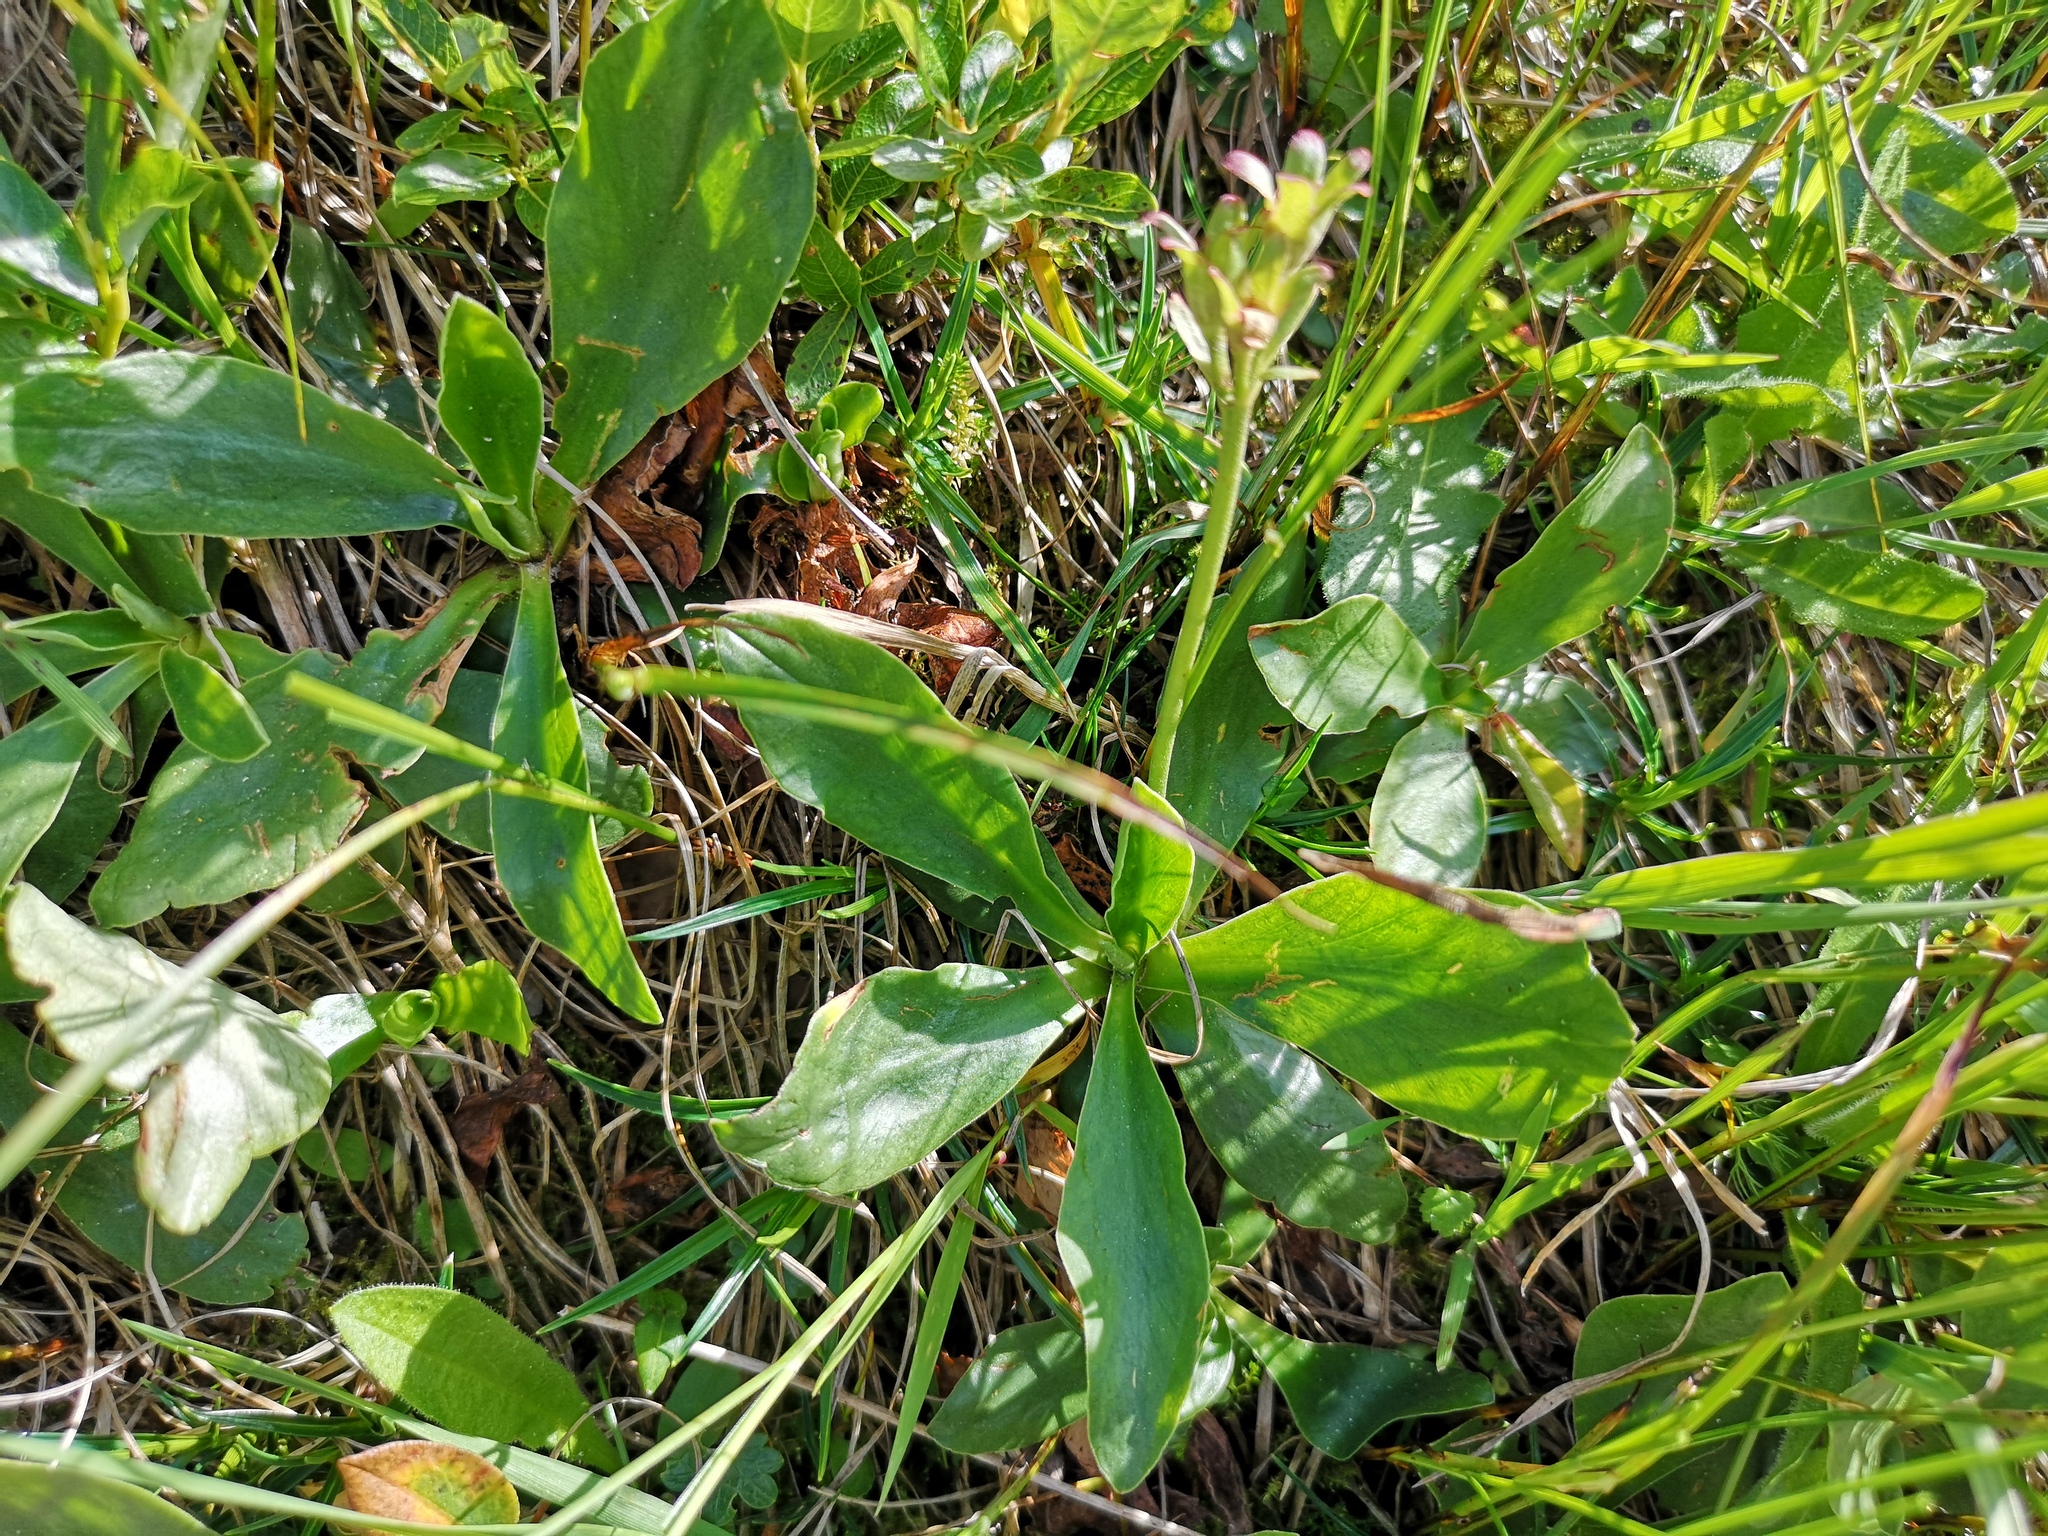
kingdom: Plantae
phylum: Tracheophyta
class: Magnoliopsida
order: Ericales
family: Primulaceae
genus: Primula
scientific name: Primula clusiana
